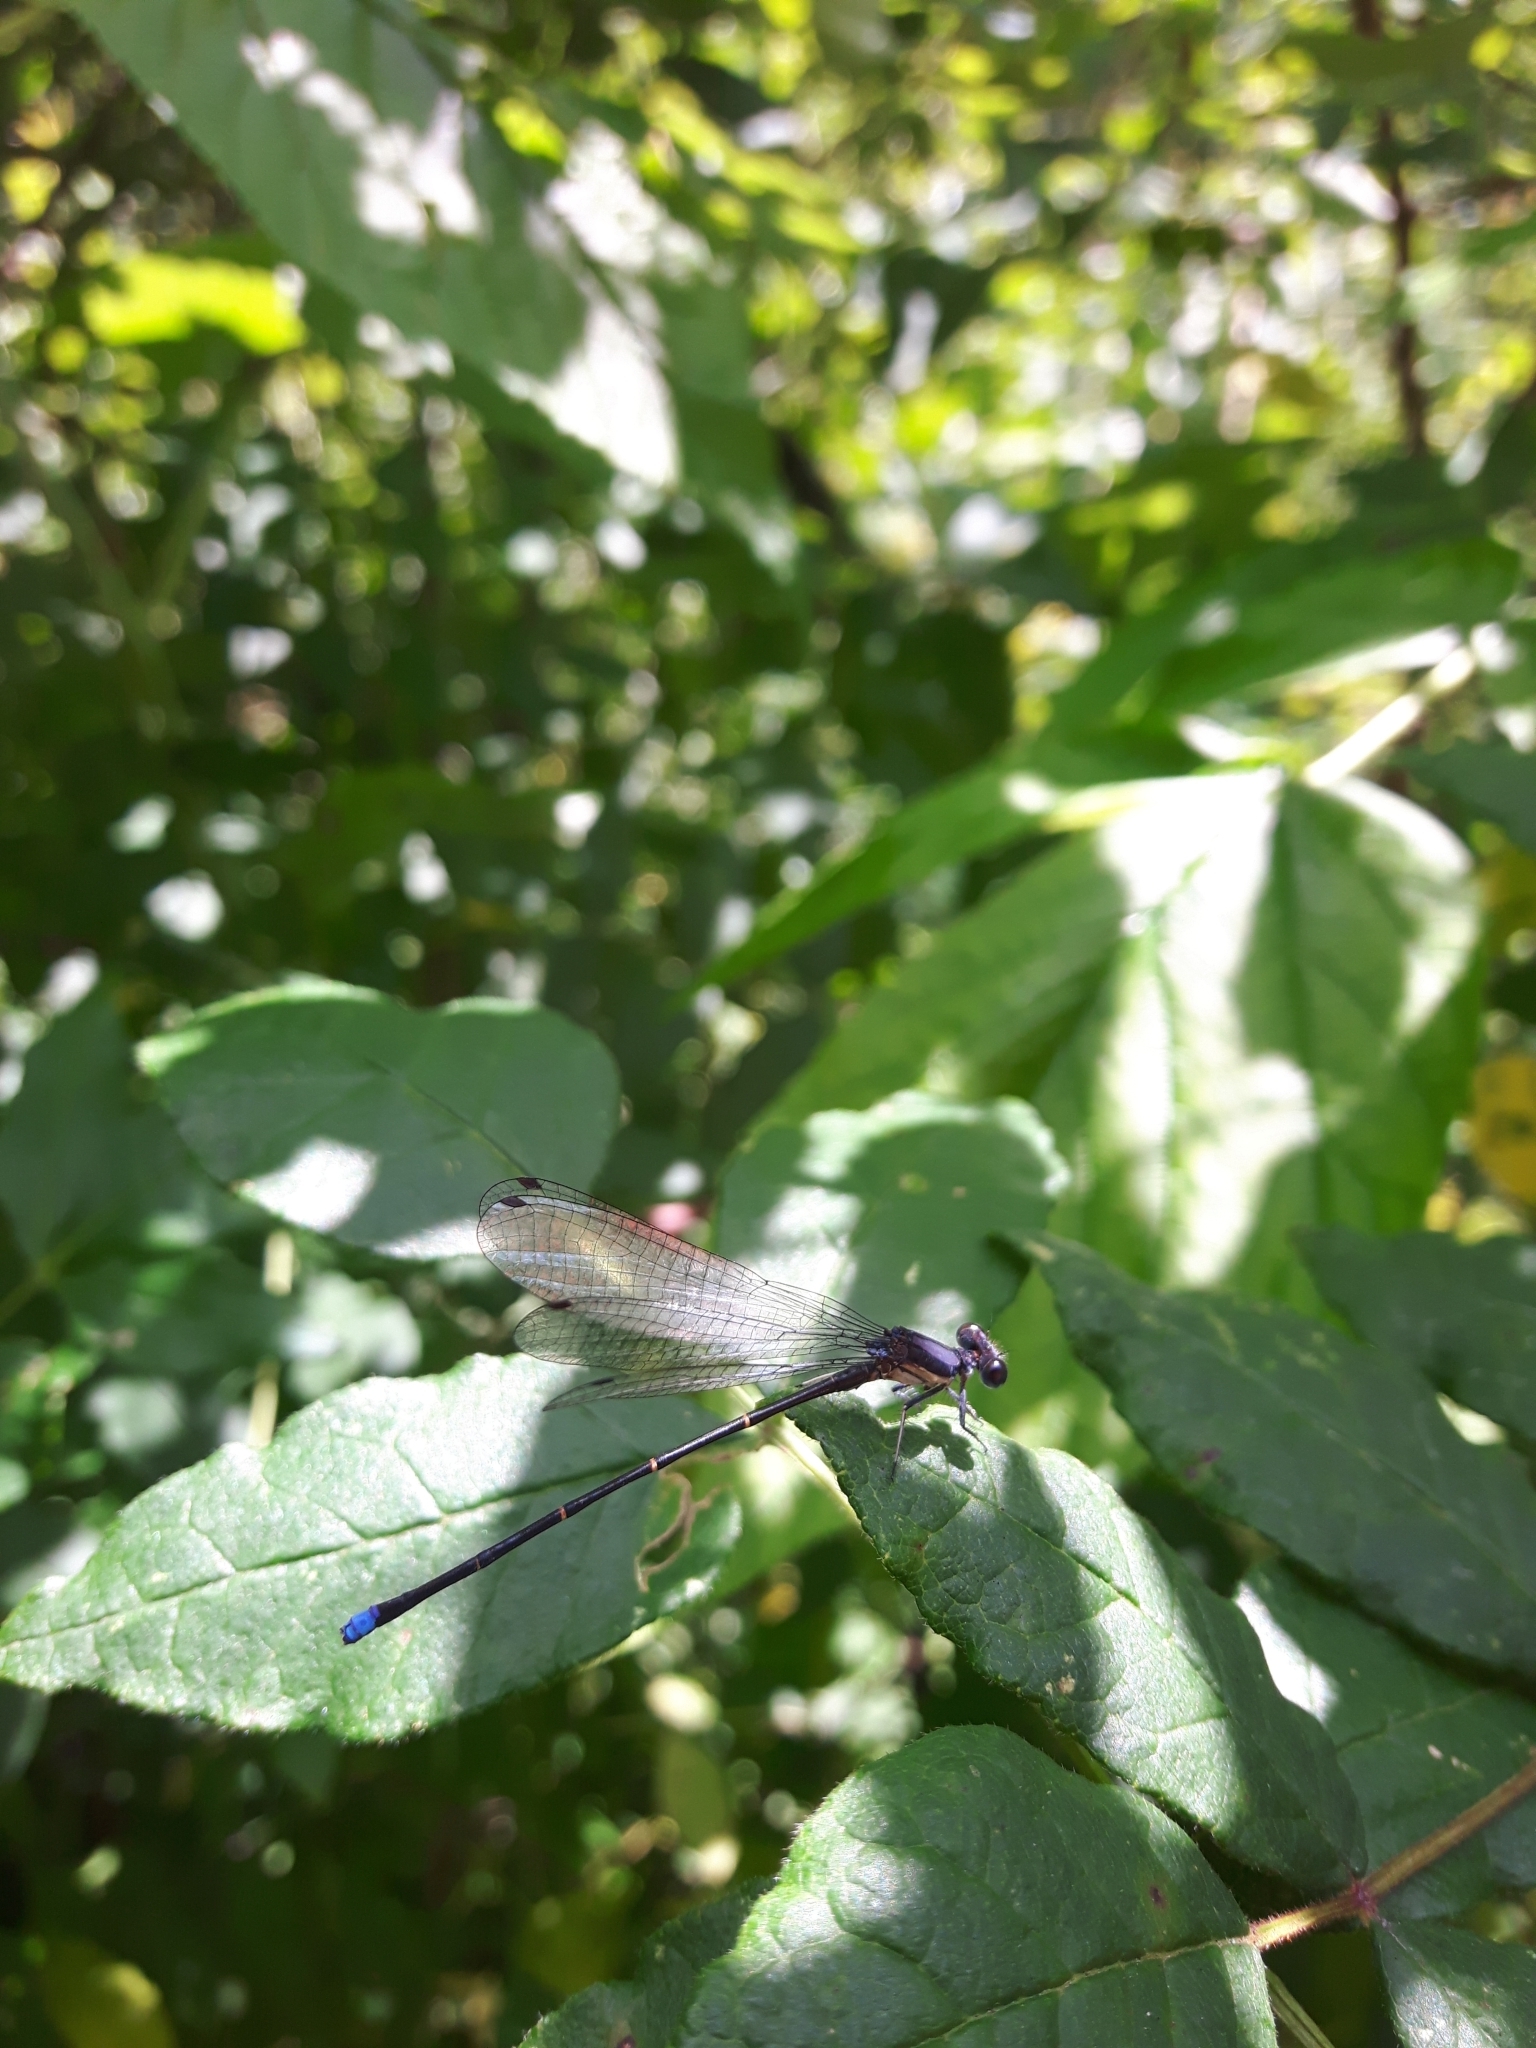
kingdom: Animalia
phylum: Arthropoda
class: Insecta
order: Odonata
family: Coenagrionidae
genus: Argia
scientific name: Argia tibialis
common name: Blue-tipped dancer
